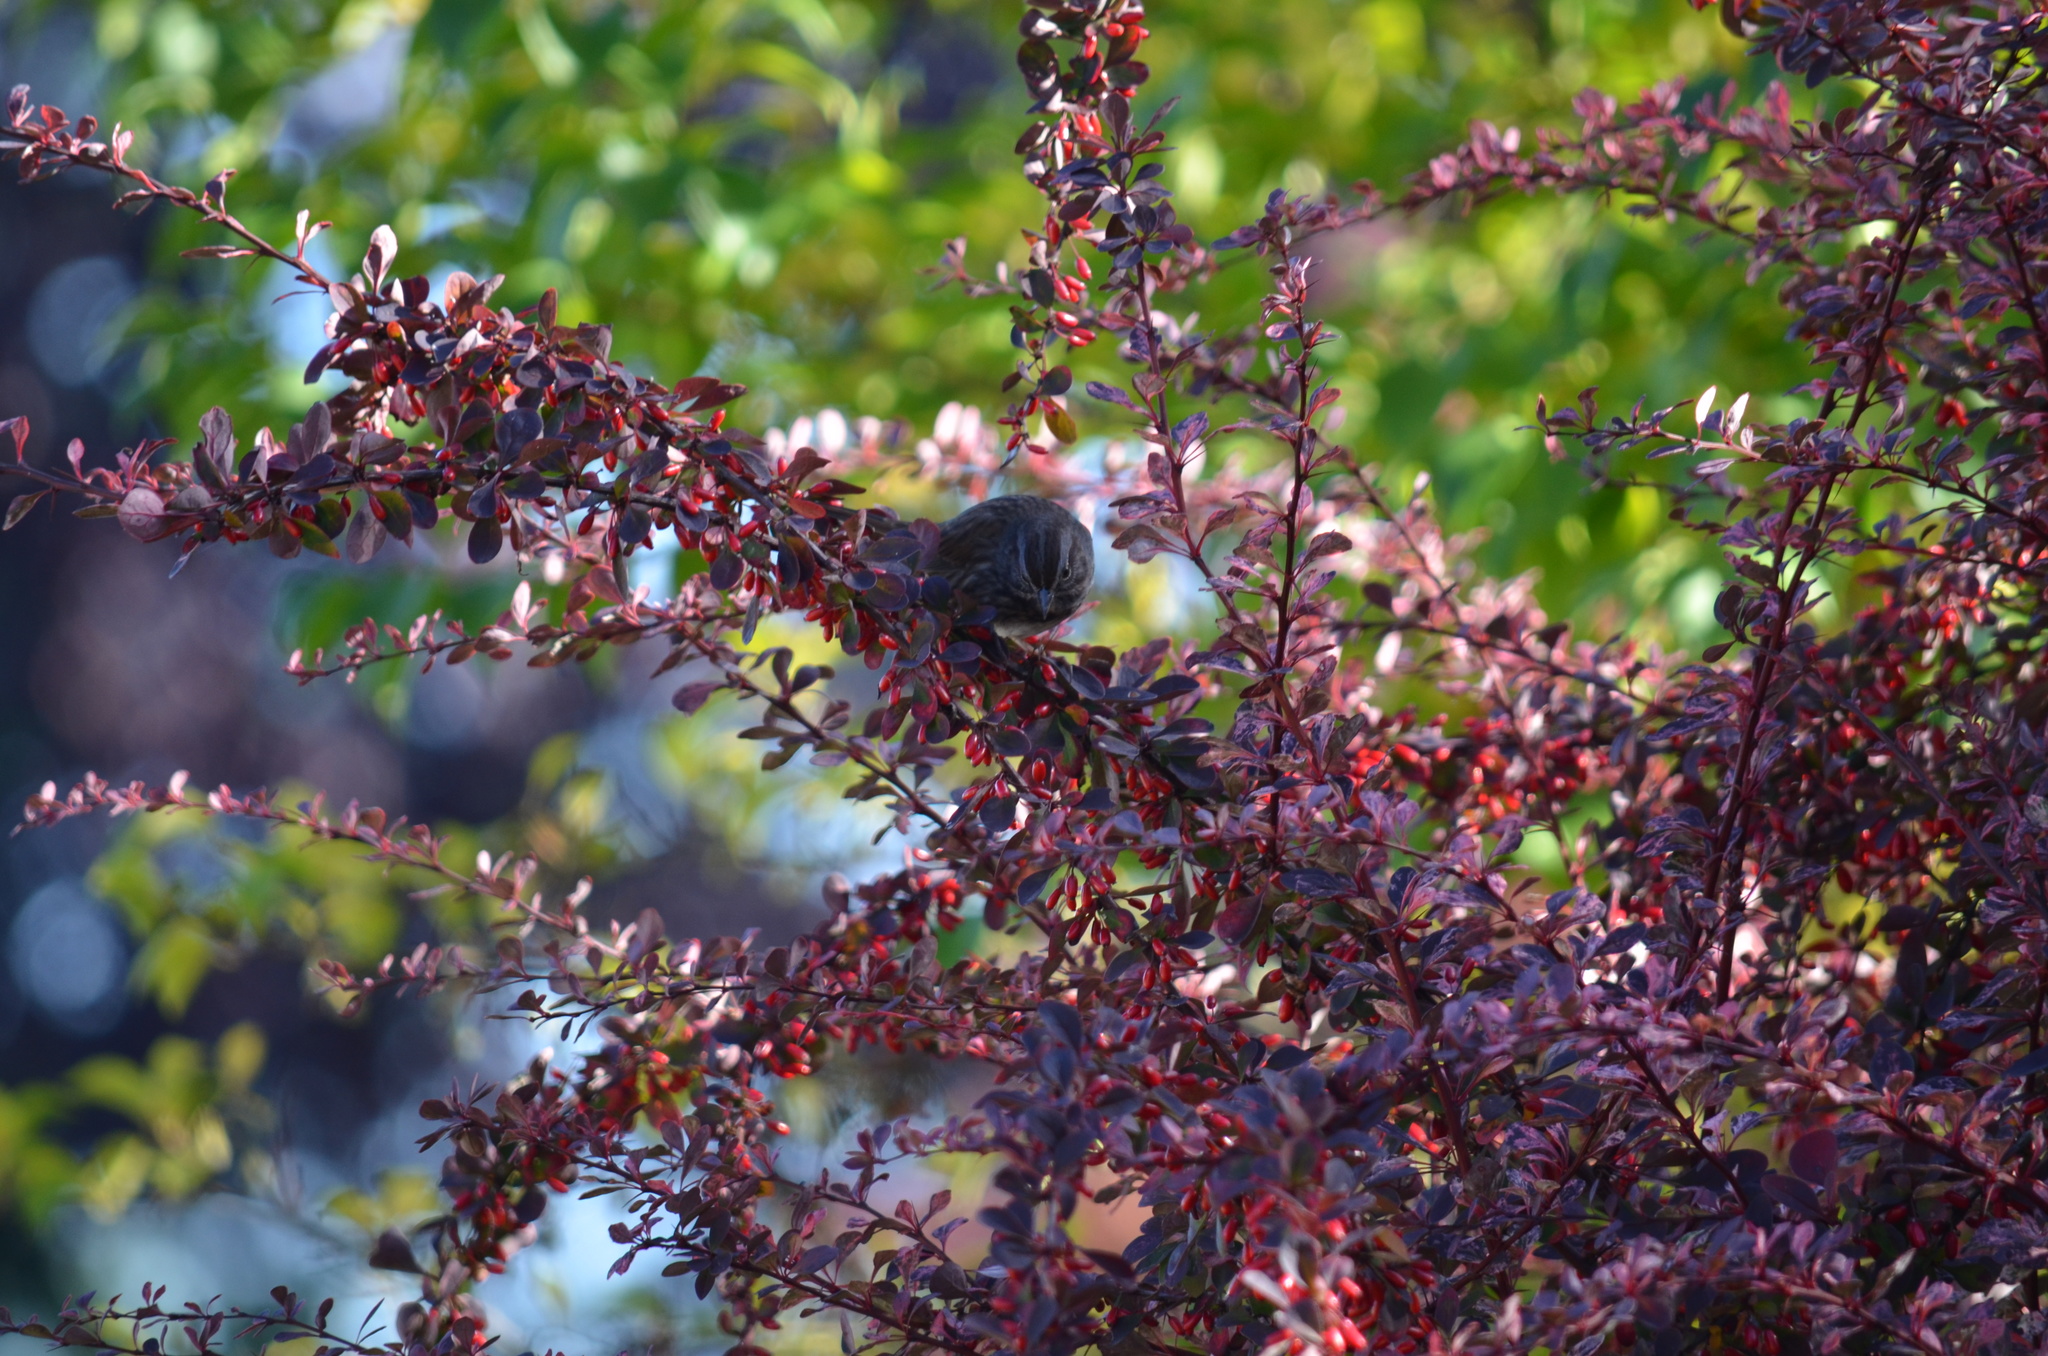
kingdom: Animalia
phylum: Chordata
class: Aves
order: Passeriformes
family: Passerellidae
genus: Melospiza
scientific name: Melospiza melodia
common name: Song sparrow
